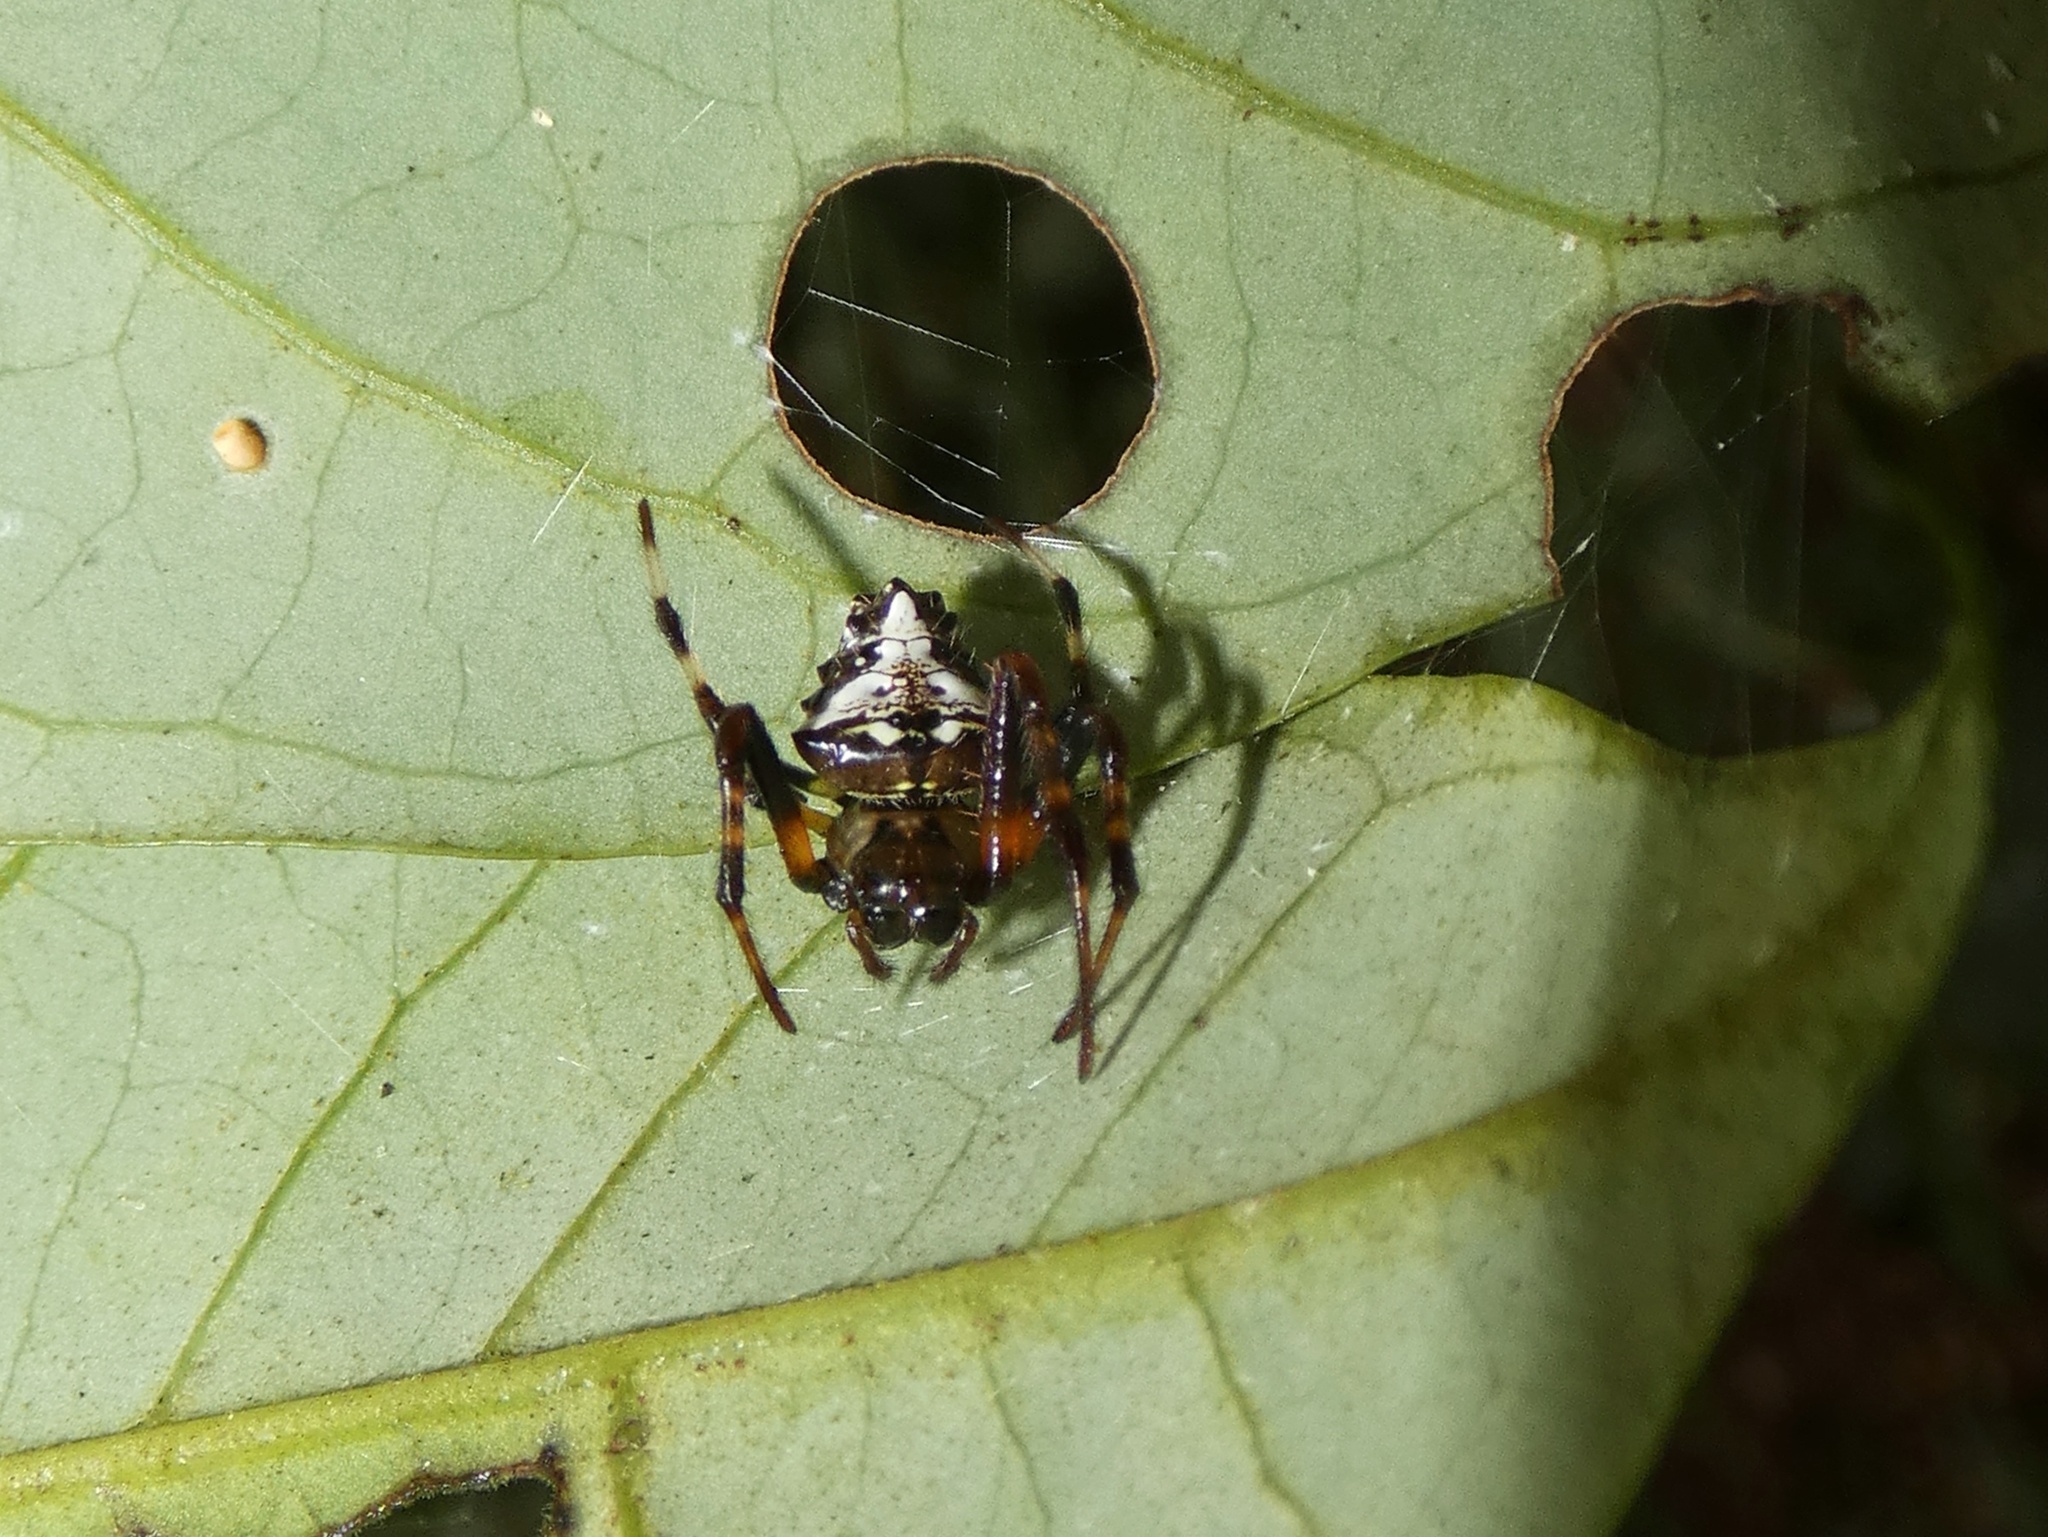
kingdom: Animalia
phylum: Arthropoda
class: Arachnida
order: Araneae
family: Araneidae
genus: Verrucosa
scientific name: Verrucosa arenata
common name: Orb weavers
